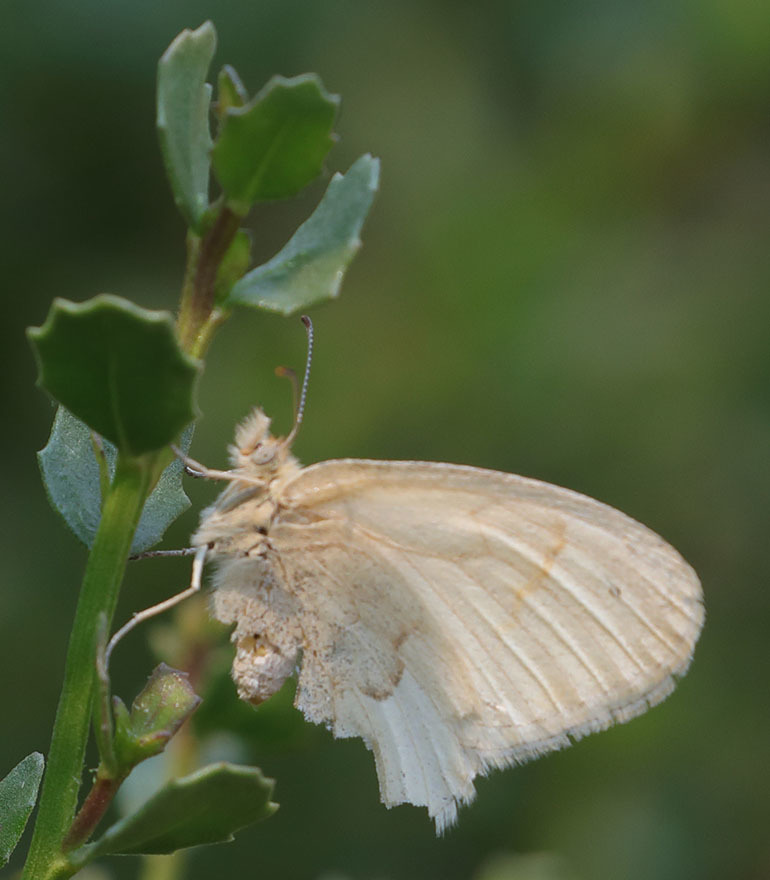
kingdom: Animalia
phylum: Arthropoda
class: Insecta
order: Lepidoptera
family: Nymphalidae
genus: Coenonympha
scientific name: Coenonympha california
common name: Common ringlet
